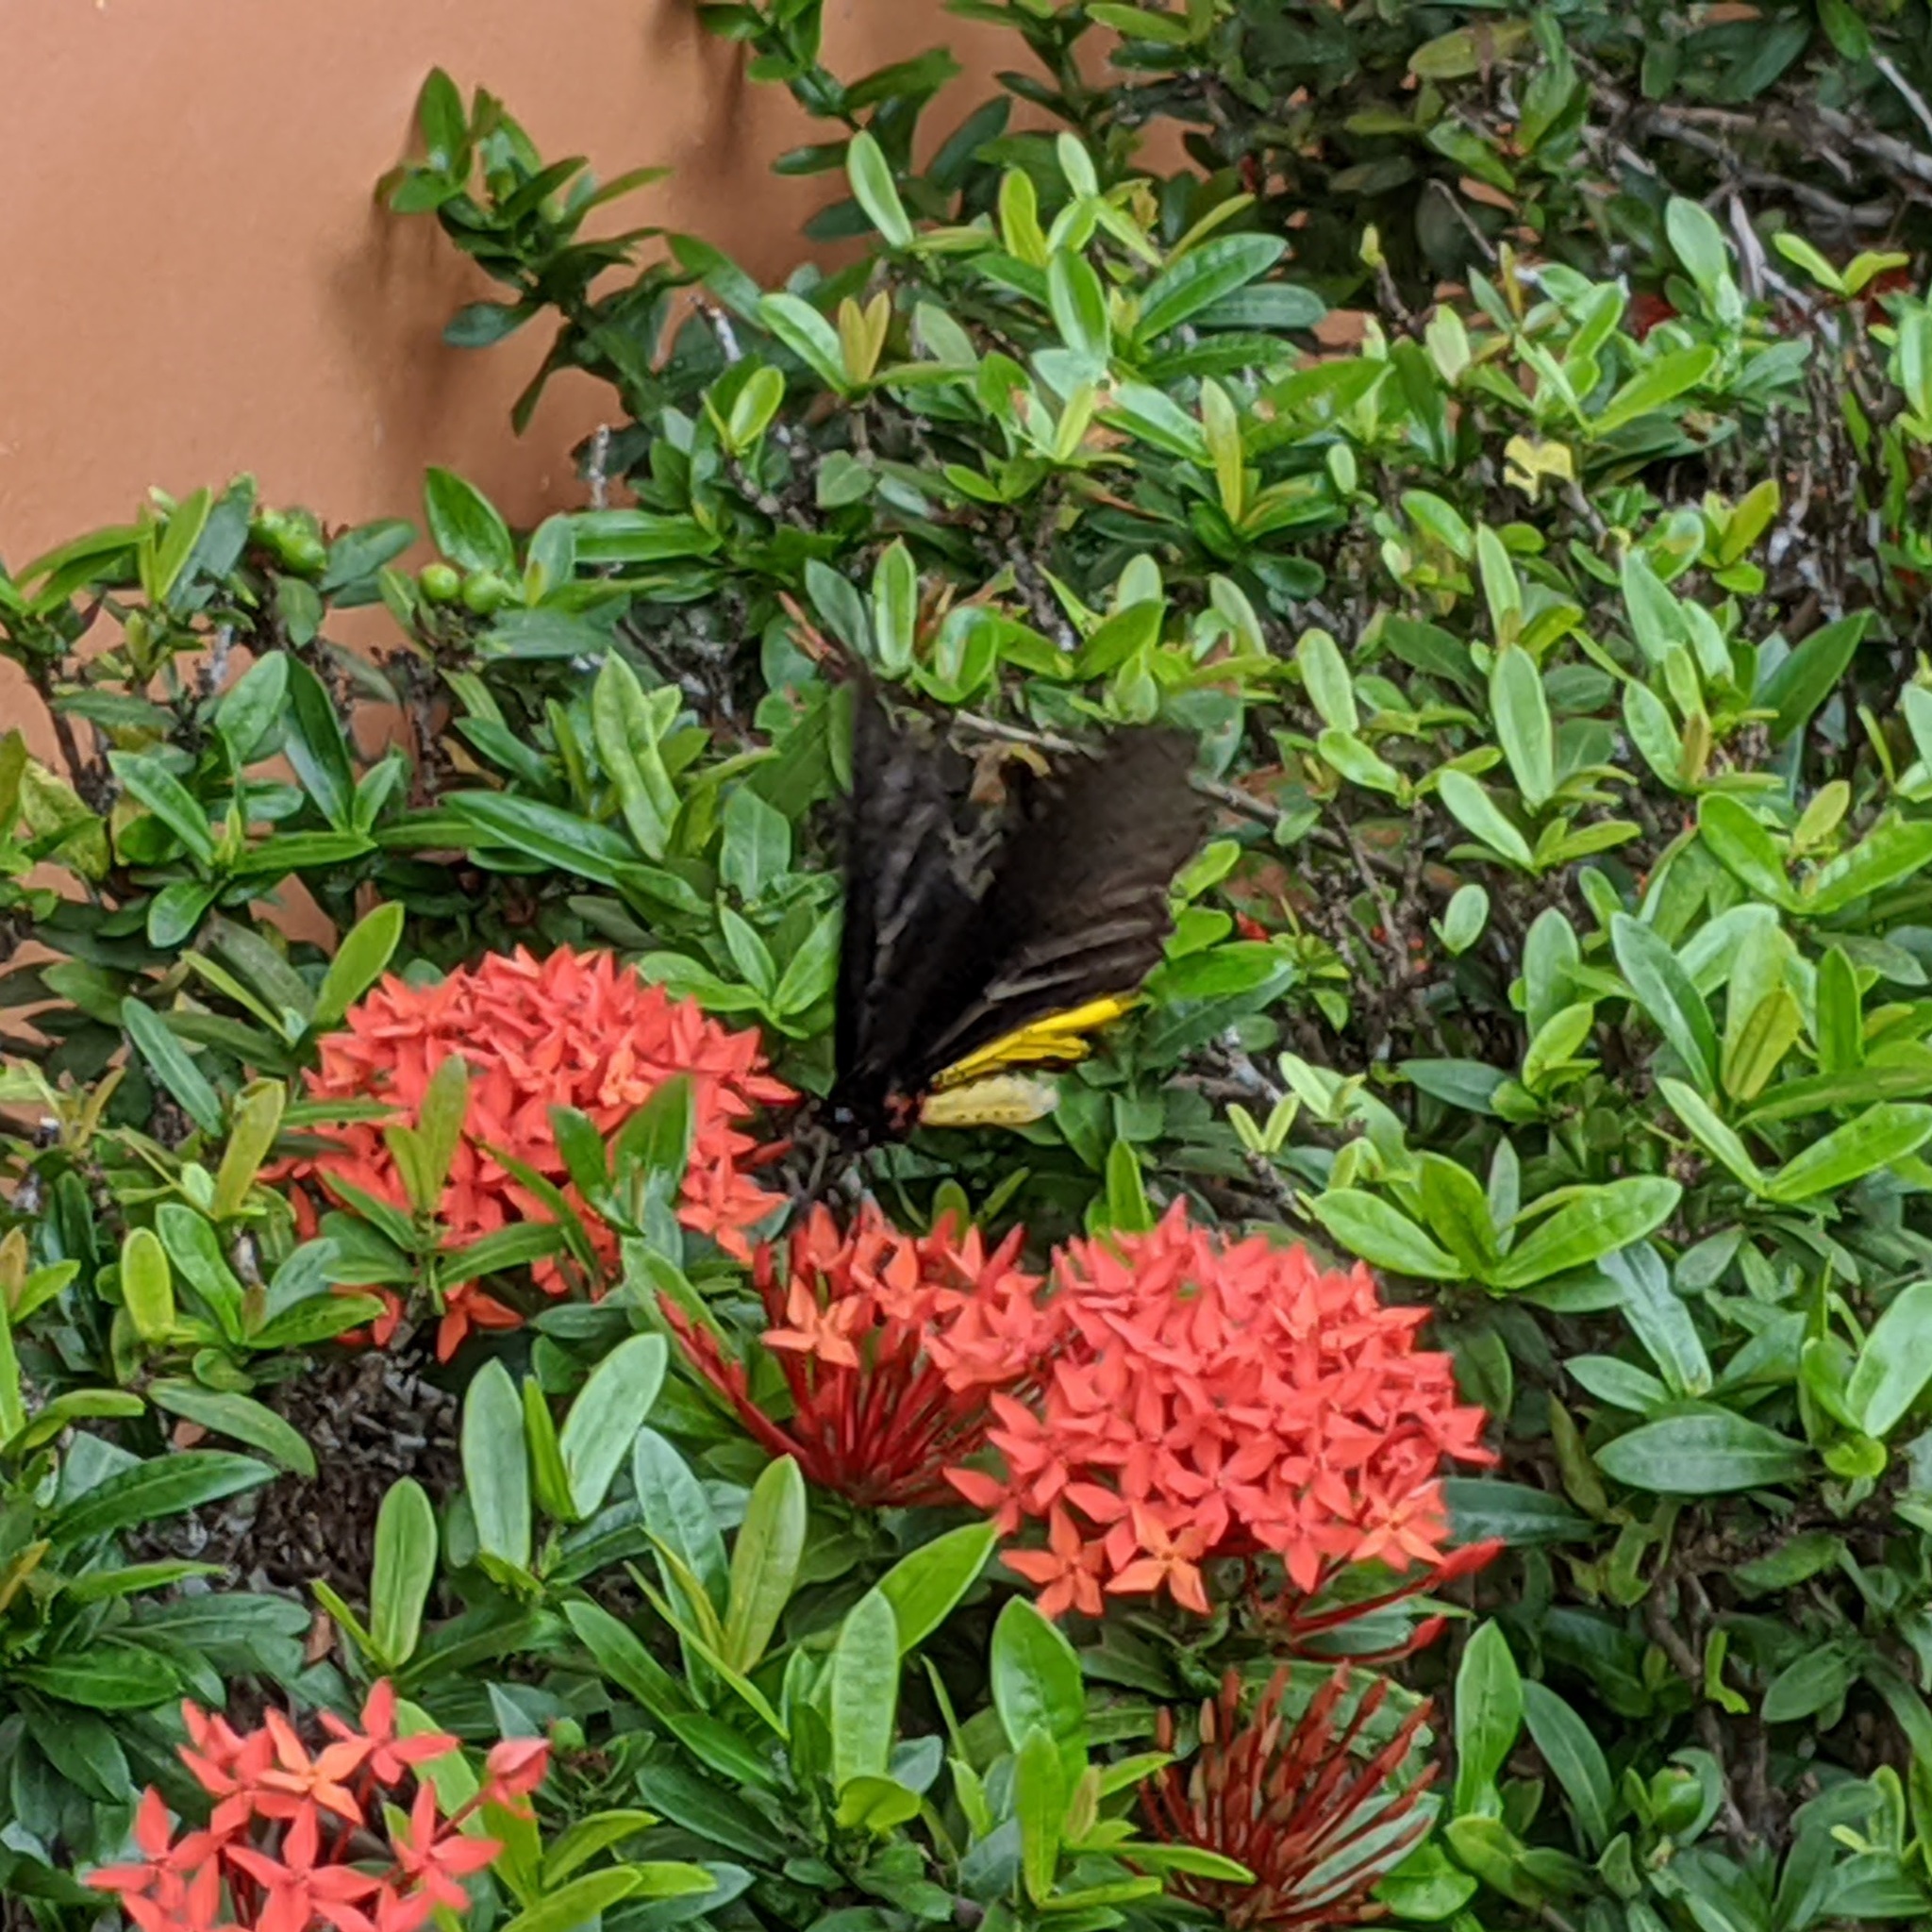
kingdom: Animalia
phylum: Arthropoda
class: Insecta
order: Lepidoptera
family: Papilionidae
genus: Troides
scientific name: Troides helena
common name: Common birdwing
